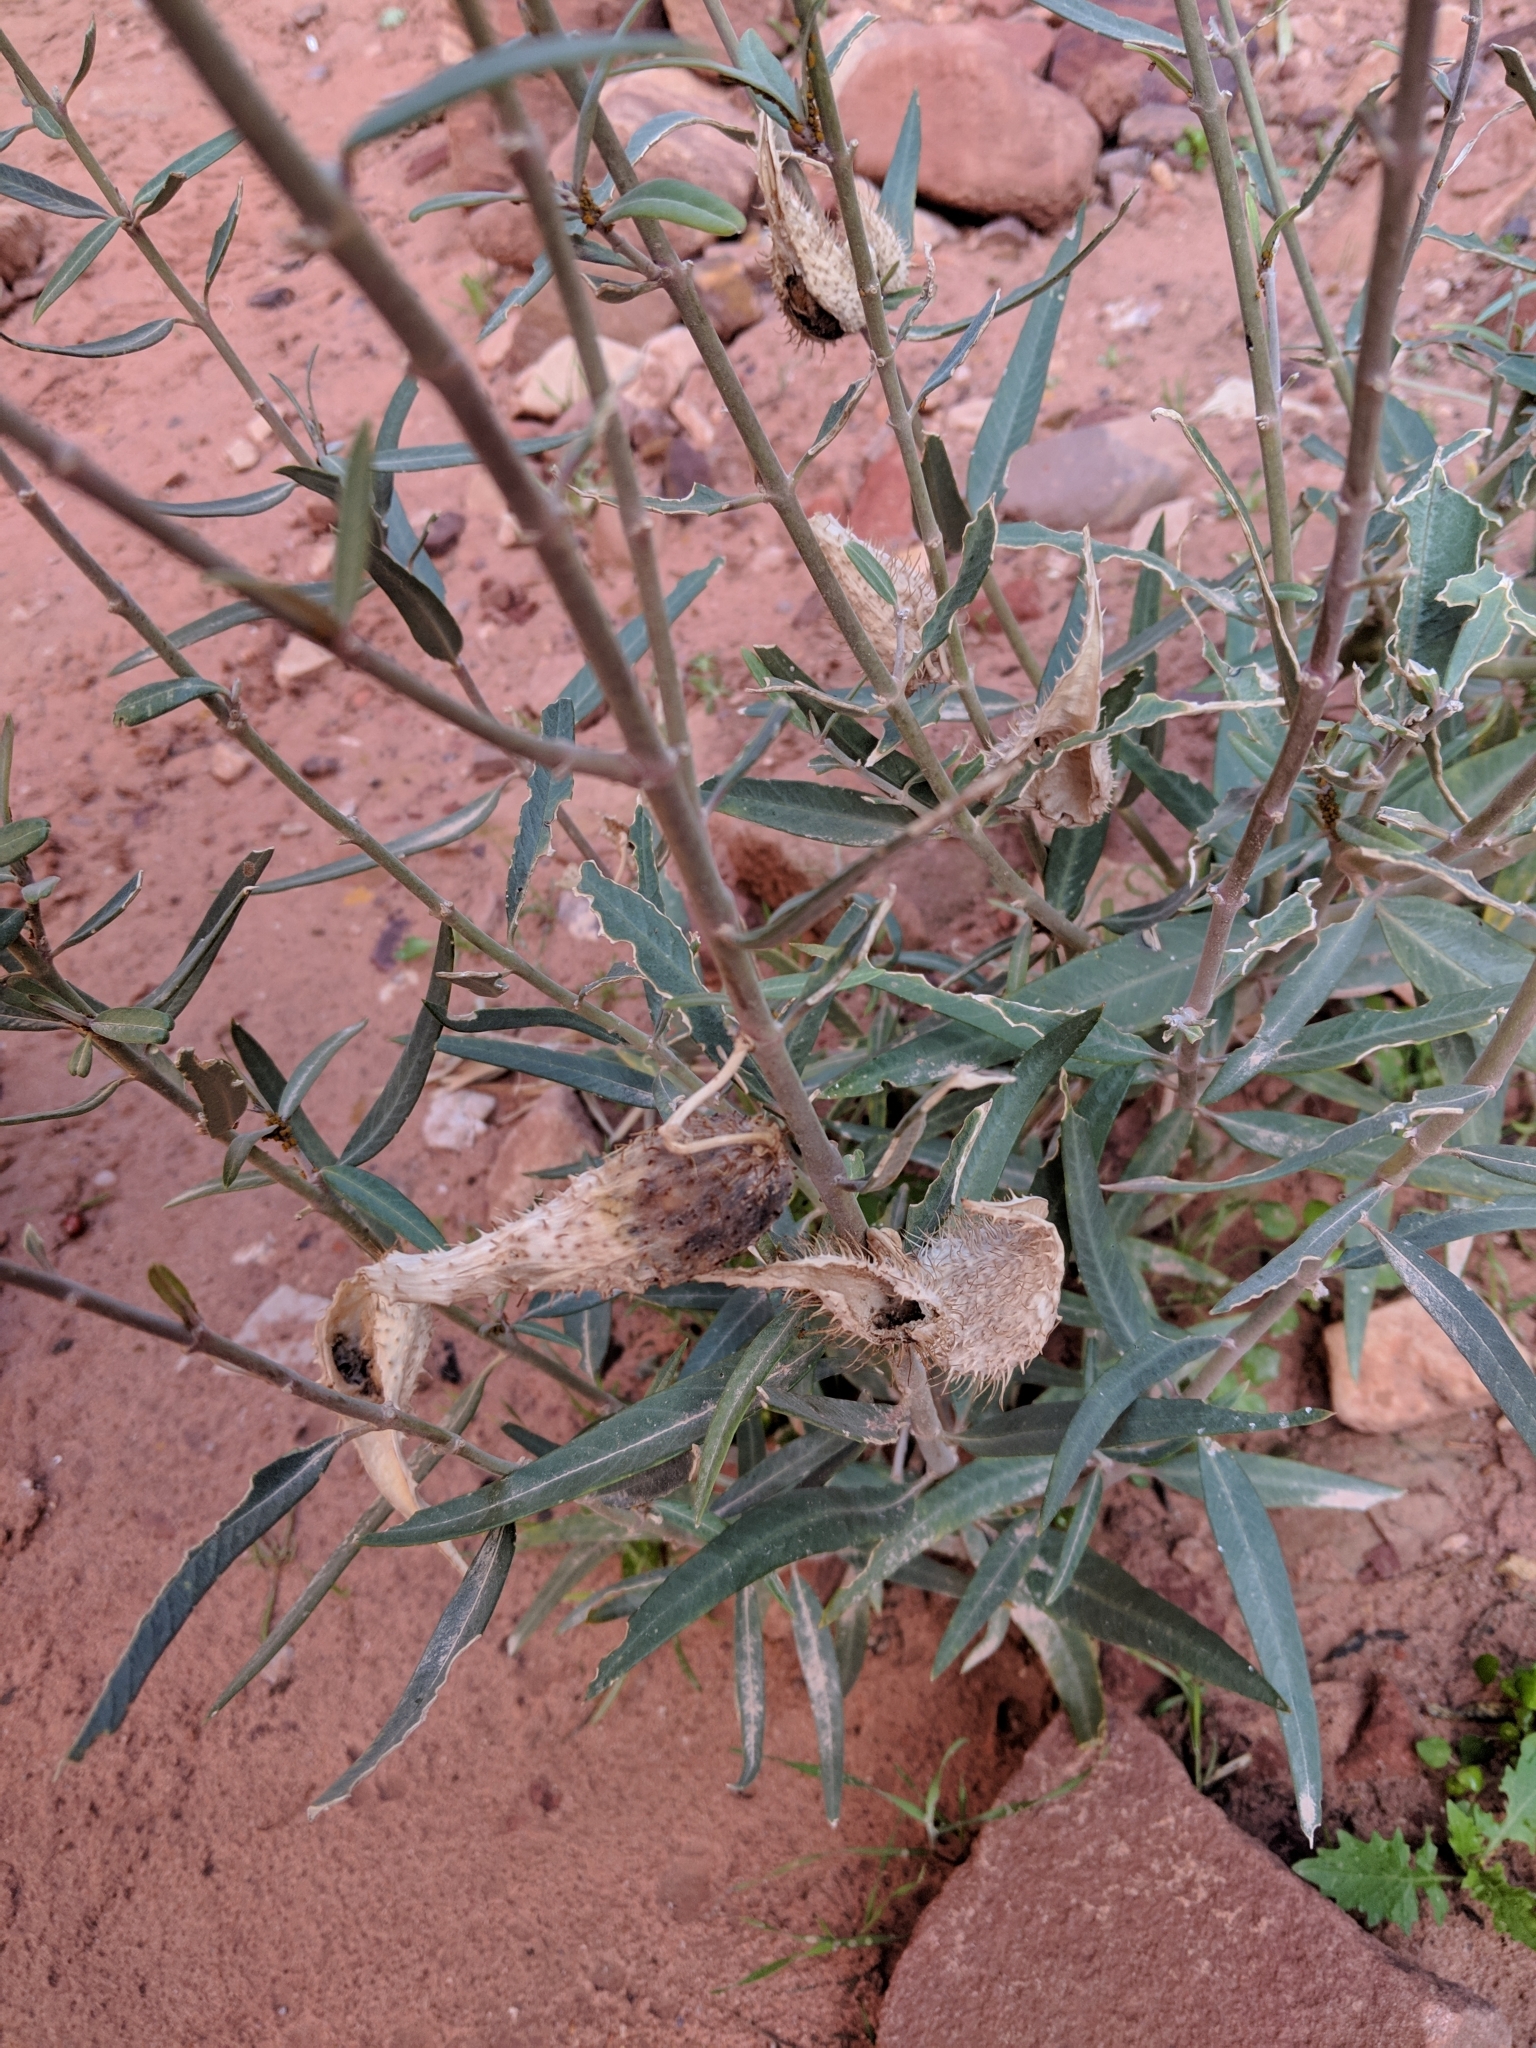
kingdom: Plantae
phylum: Tracheophyta
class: Magnoliopsida
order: Gentianales
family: Apocynaceae
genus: Gomphocarpus
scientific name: Gomphocarpus sinaicus
